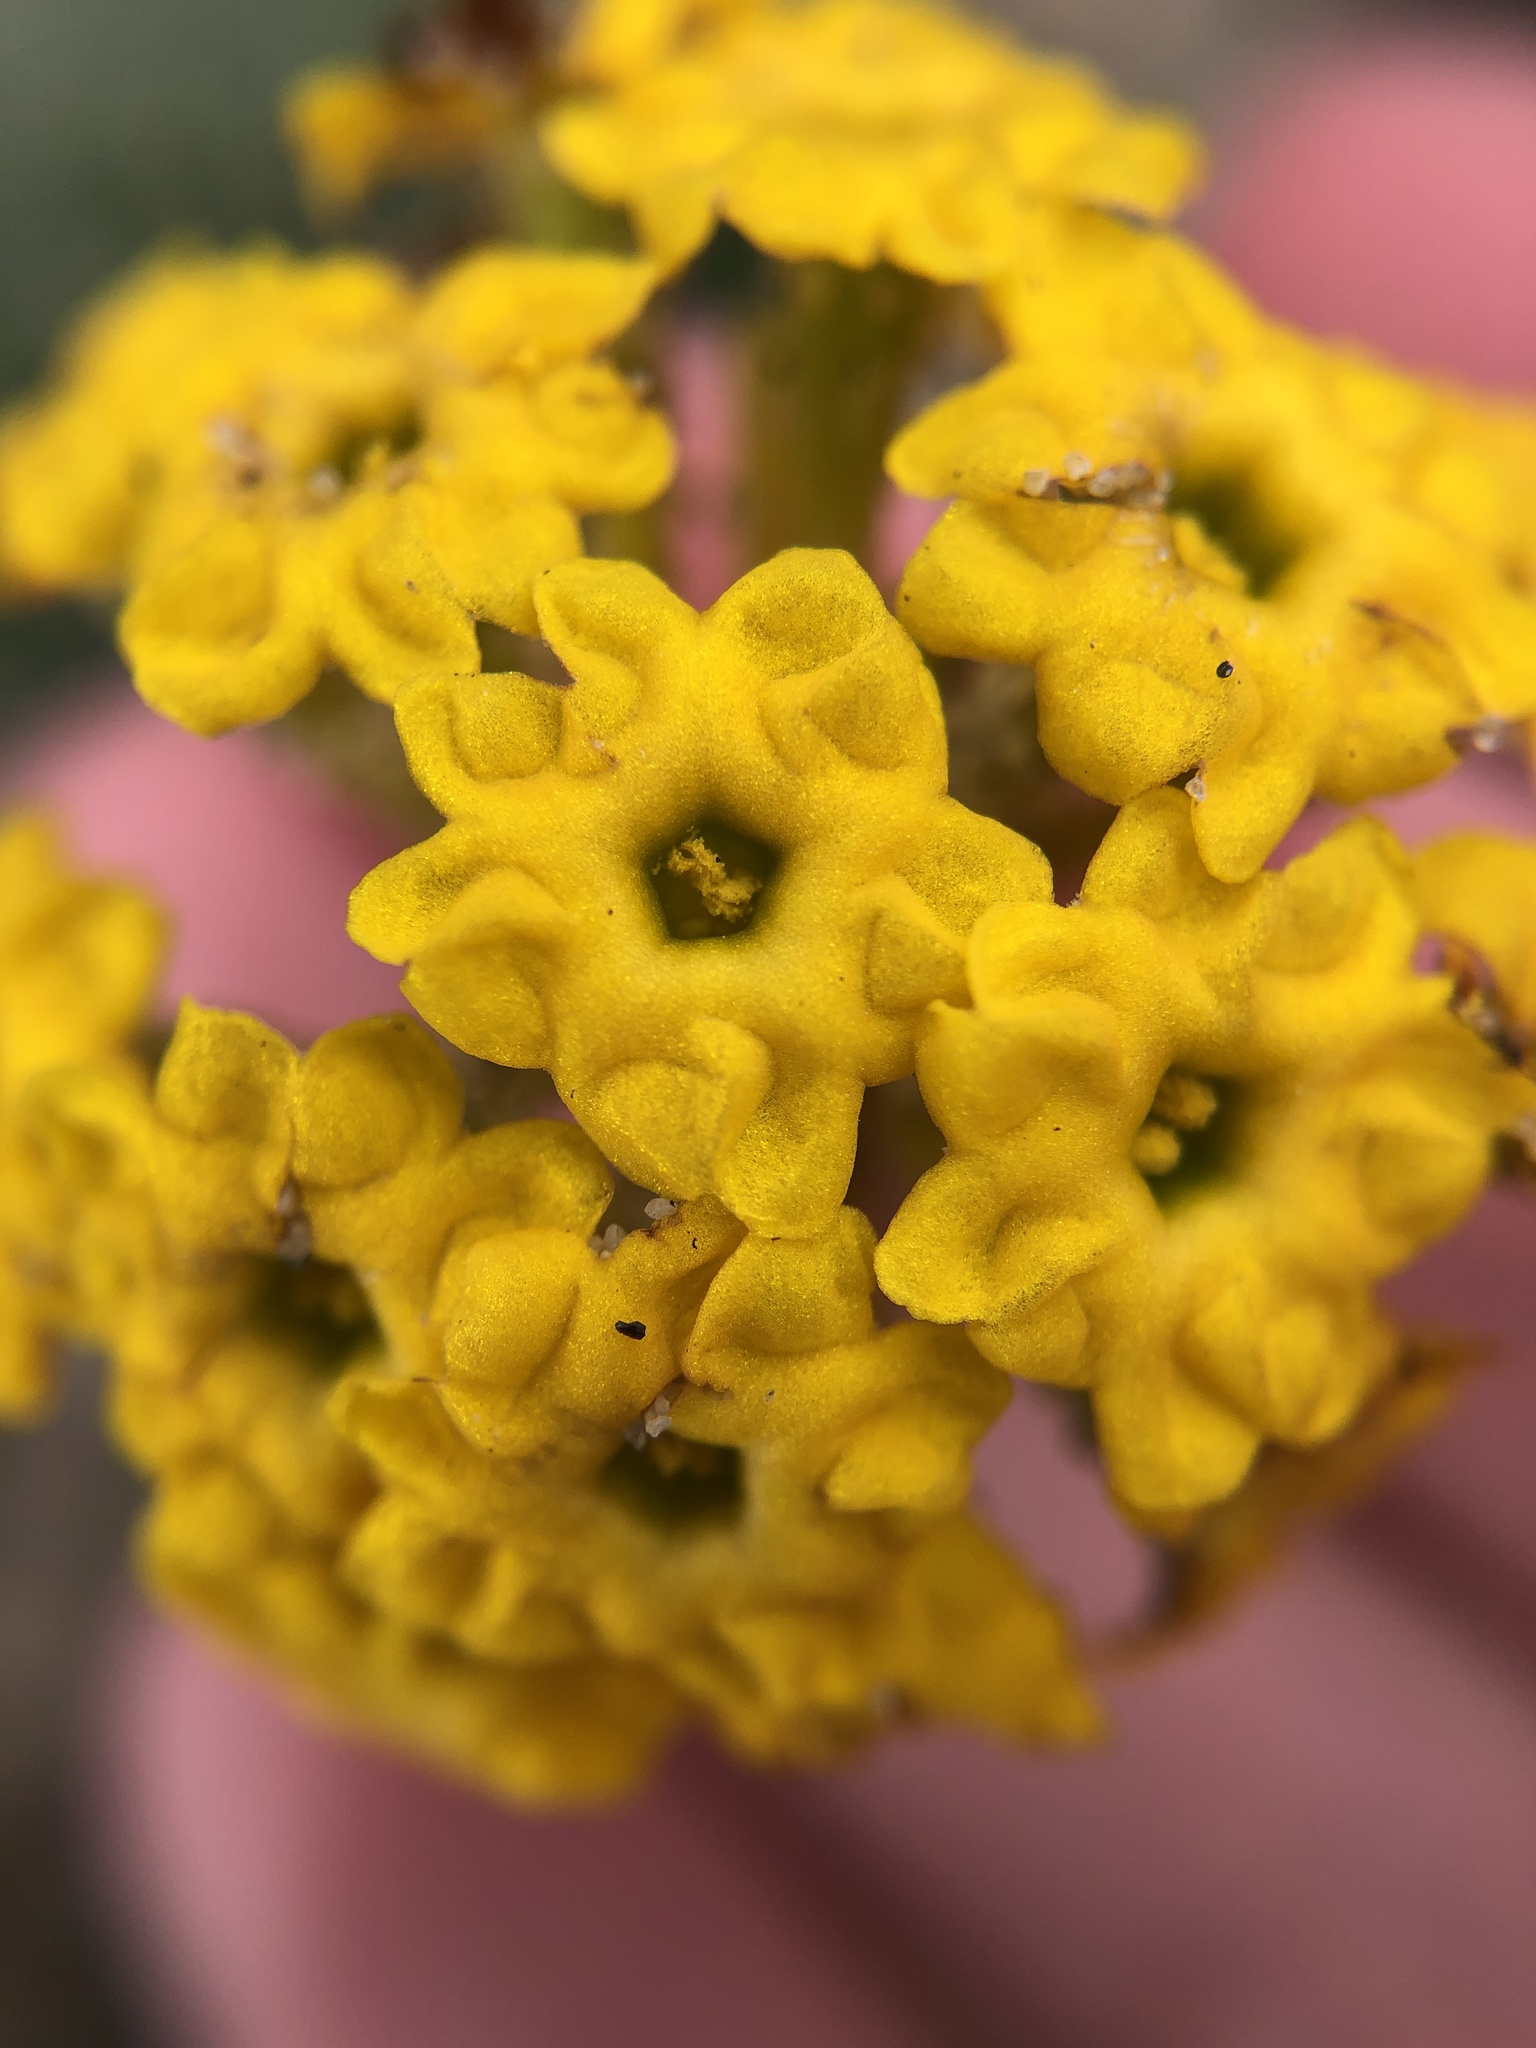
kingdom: Plantae
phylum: Tracheophyta
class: Magnoliopsida
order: Caryophyllales
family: Nyctaginaceae
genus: Abronia
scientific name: Abronia latifolia
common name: Yellow sand-verbena
